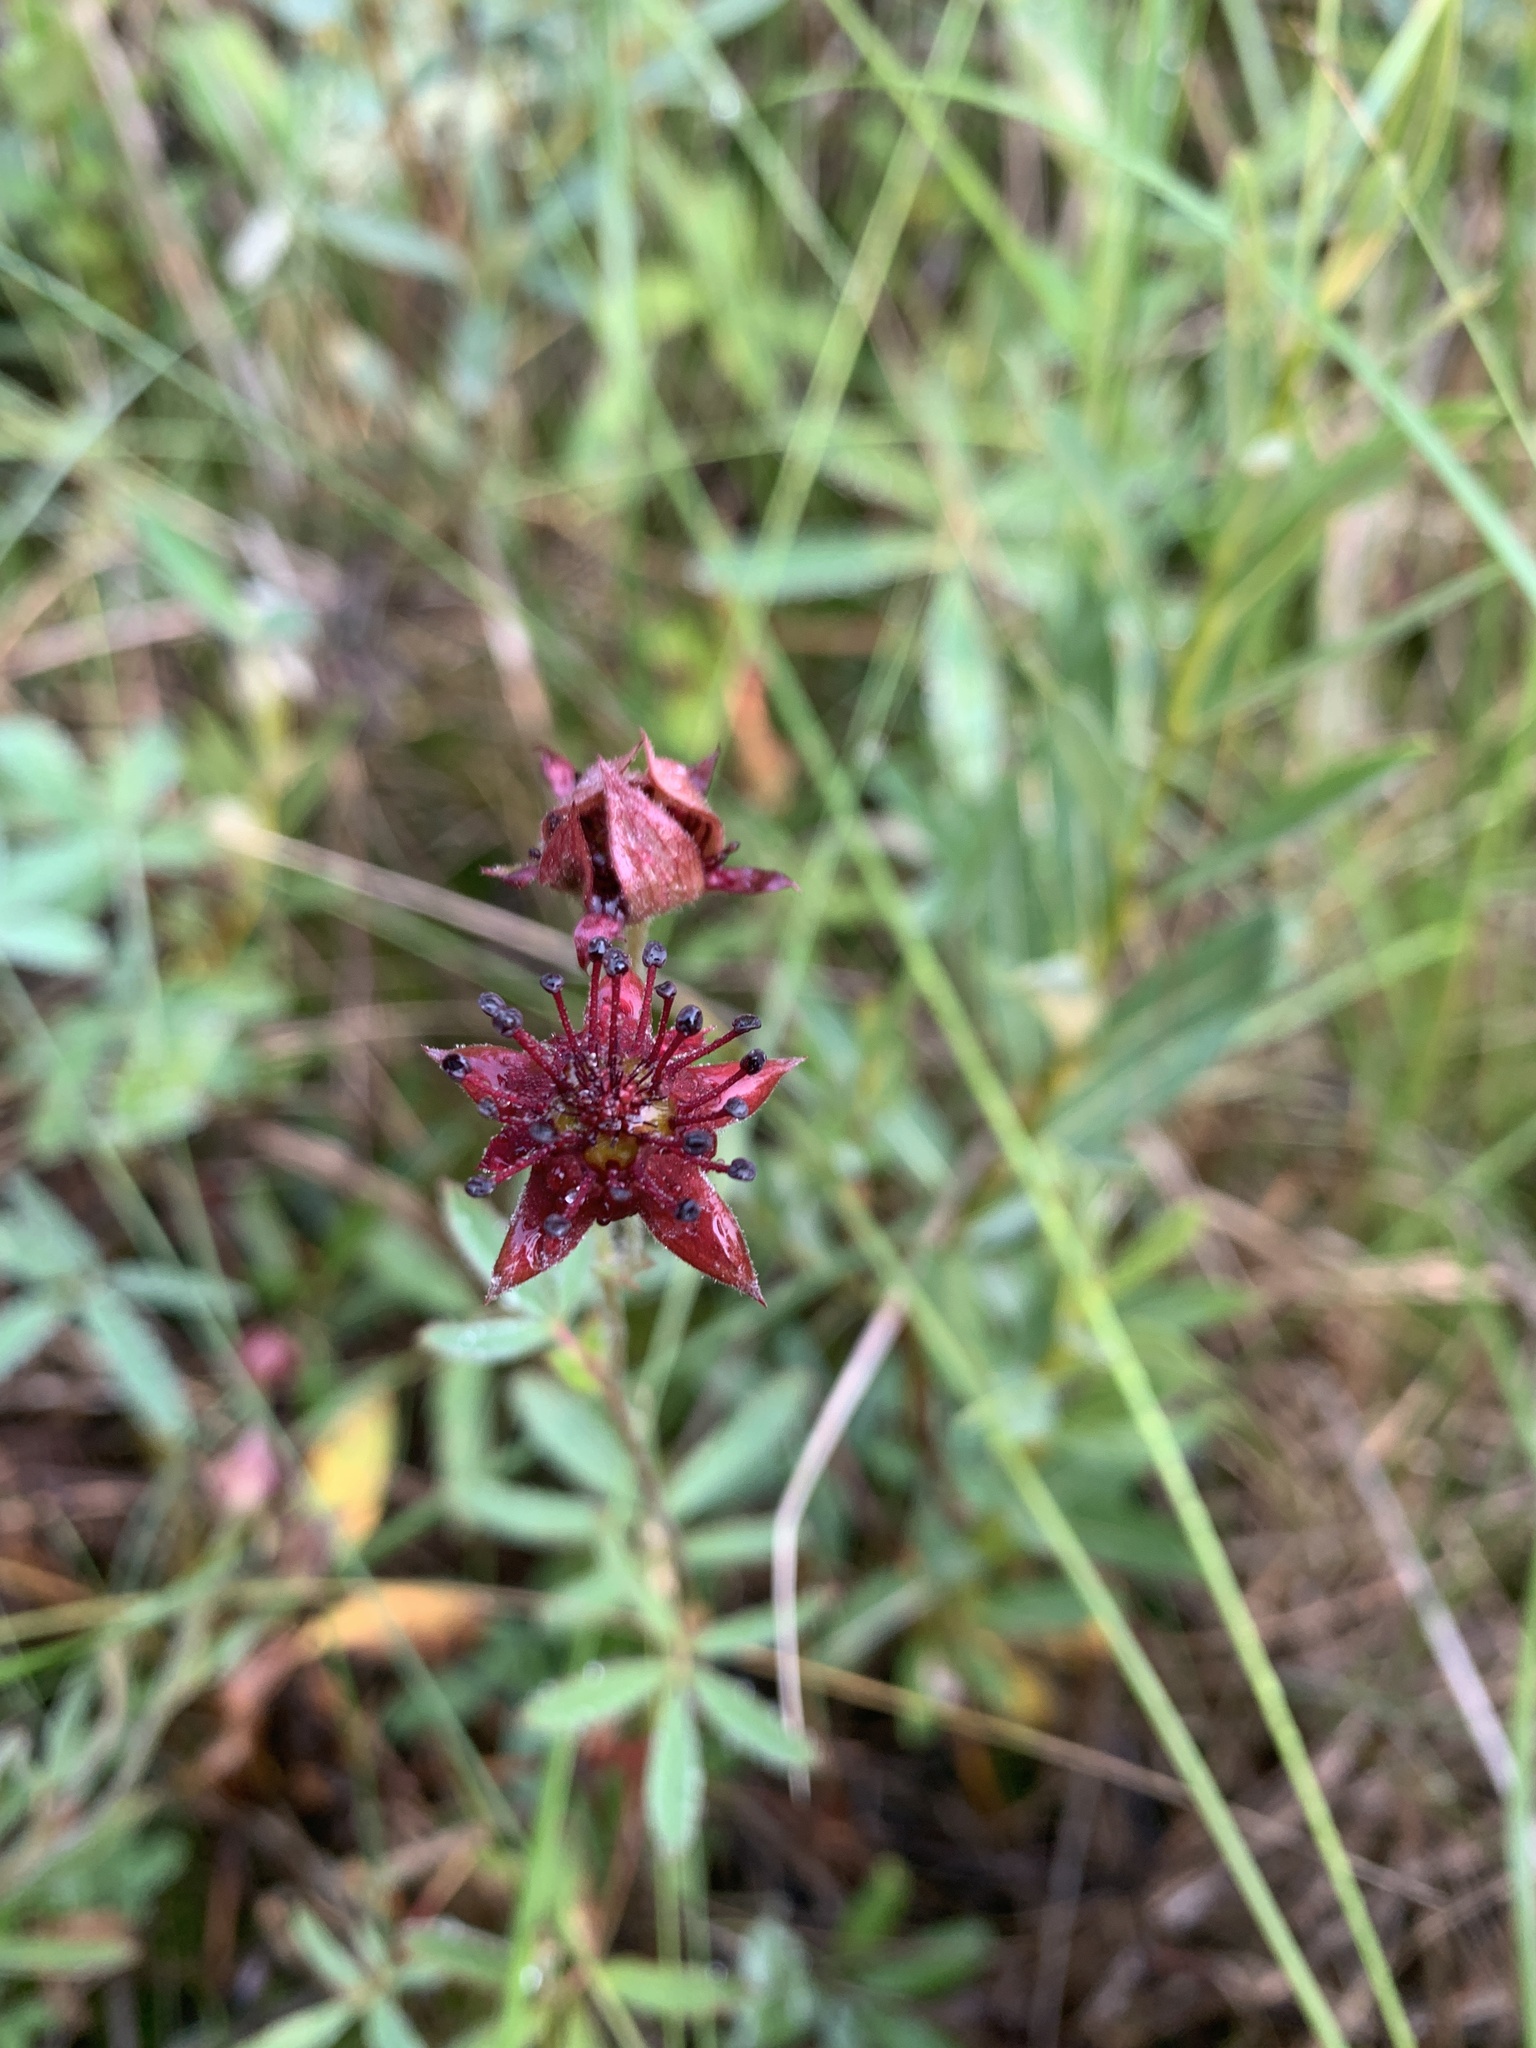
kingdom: Plantae
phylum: Tracheophyta
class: Magnoliopsida
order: Rosales
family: Rosaceae
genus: Comarum
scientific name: Comarum palustre
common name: Marsh cinquefoil
